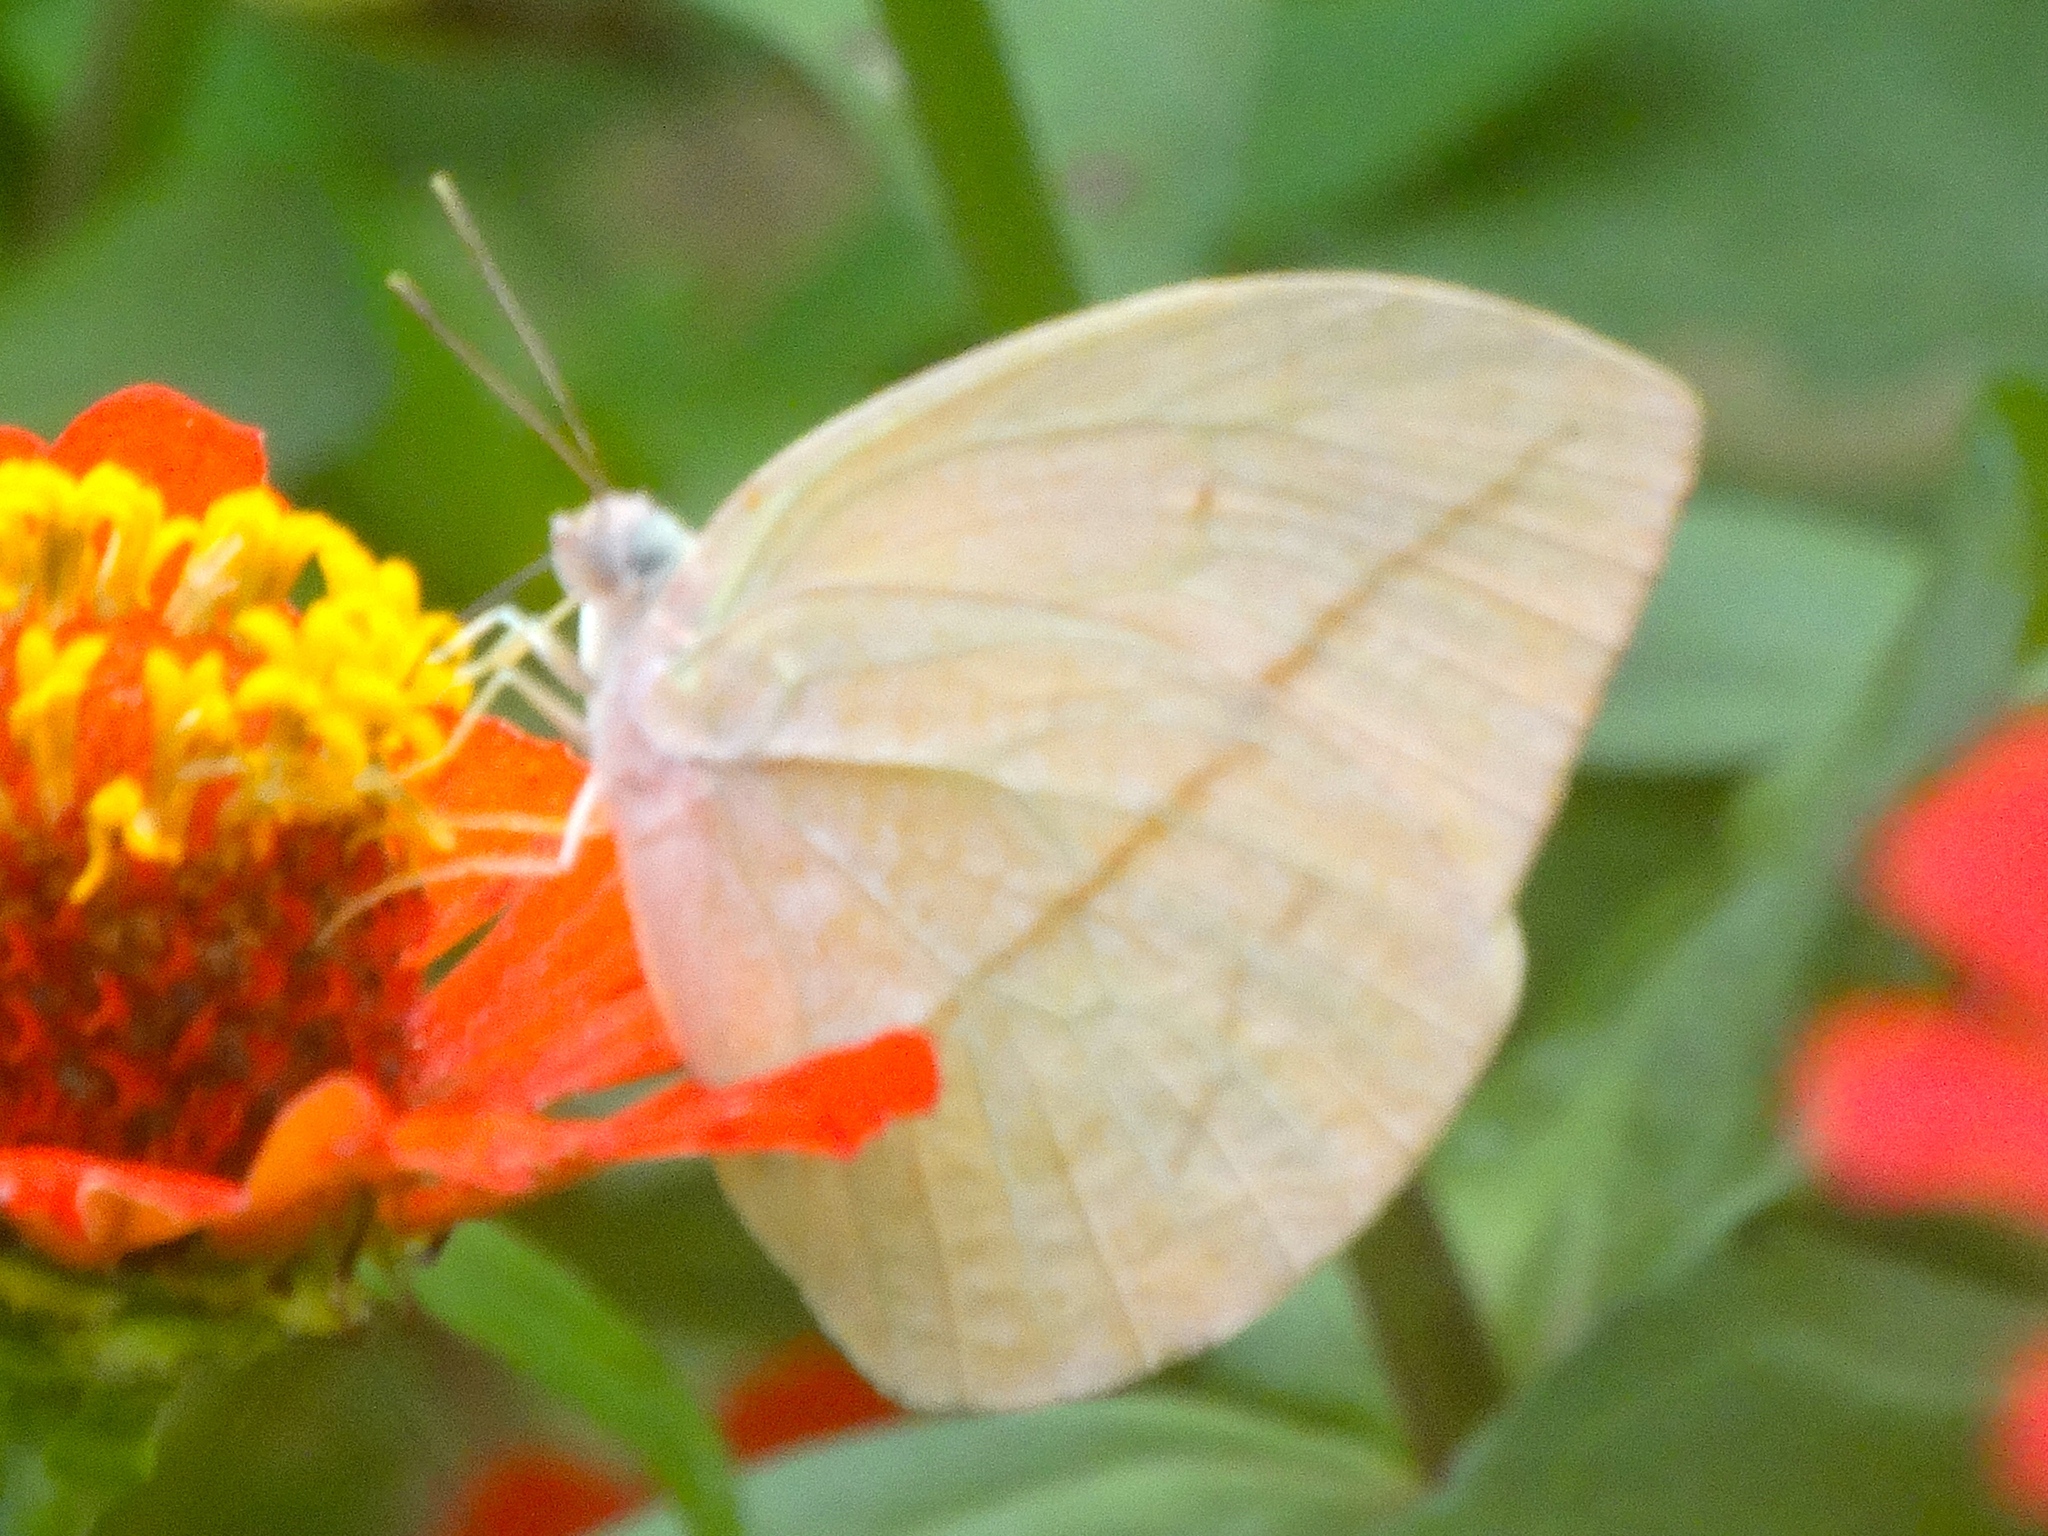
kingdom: Animalia
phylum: Arthropoda
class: Insecta
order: Lepidoptera
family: Pieridae
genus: Rhabdodryas
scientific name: Rhabdodryas trite
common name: Straight-lined sulphur
